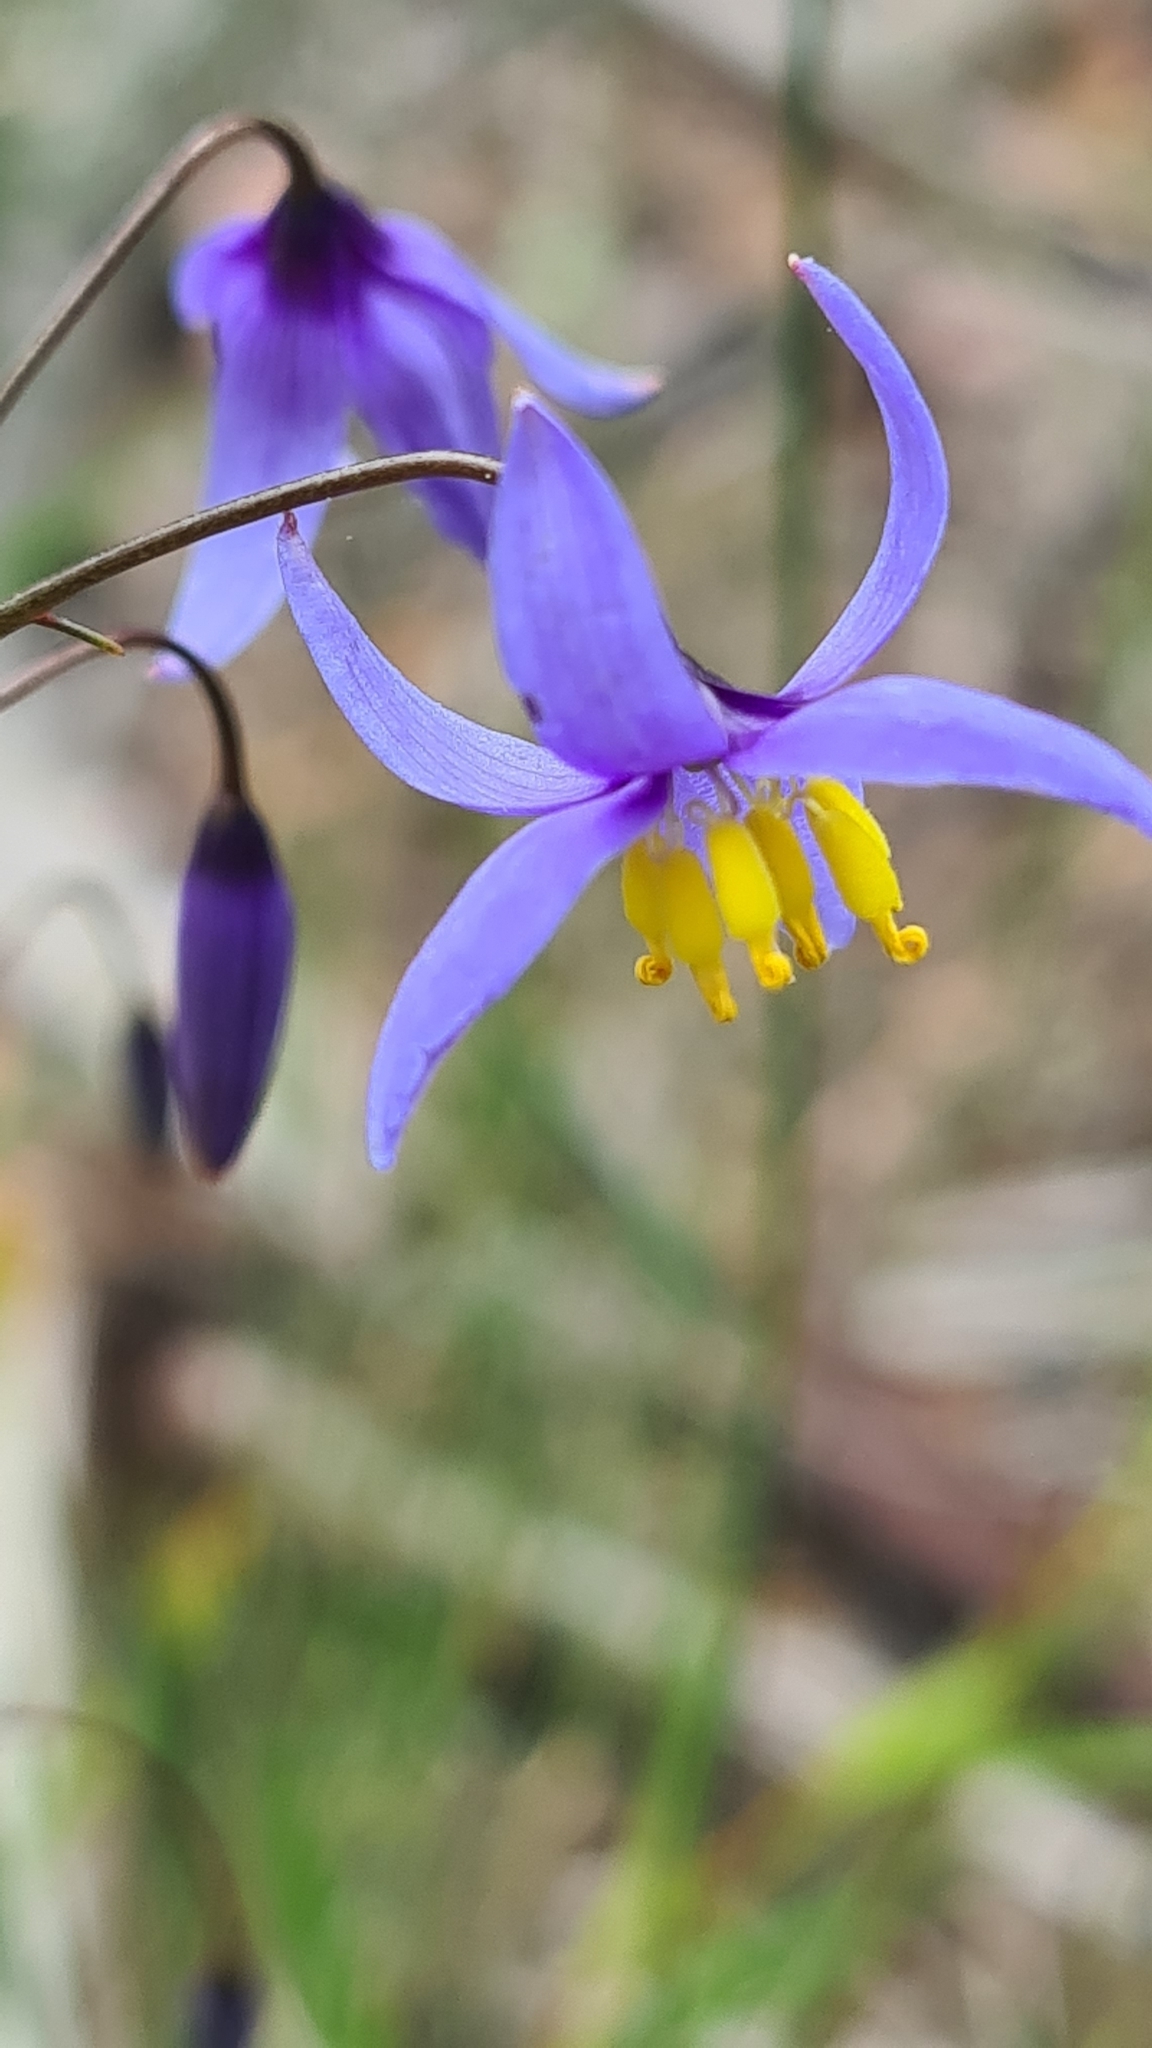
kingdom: Plantae
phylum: Tracheophyta
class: Liliopsida
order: Asparagales
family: Asphodelaceae
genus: Stypandra
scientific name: Stypandra glauca
